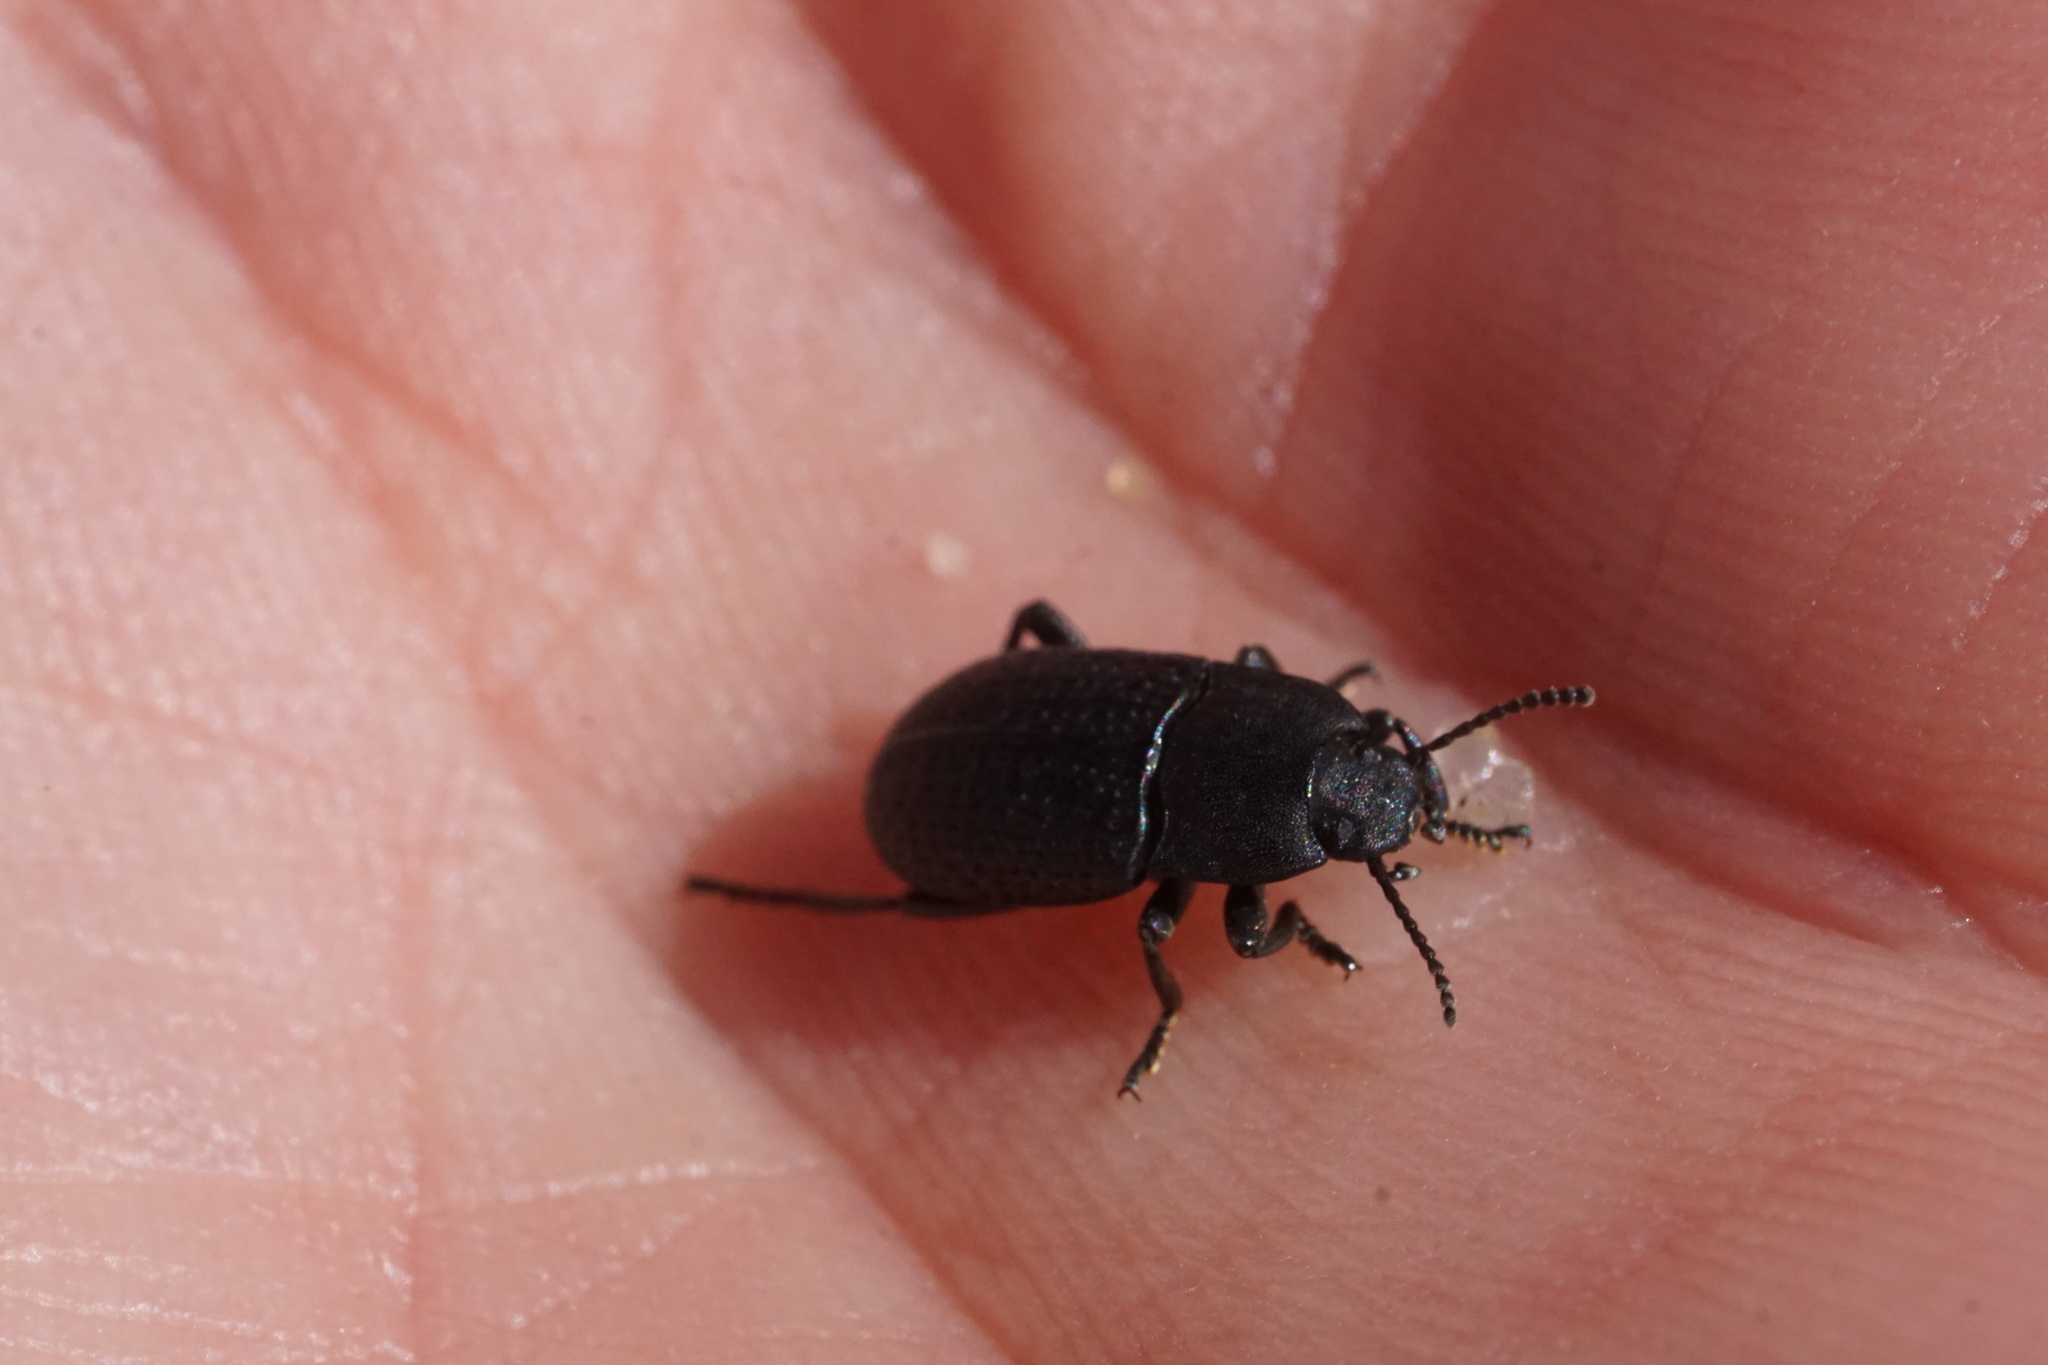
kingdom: Animalia
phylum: Arthropoda
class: Insecta
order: Coleoptera
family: Tenebrionidae
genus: Asiopus
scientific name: Asiopus
